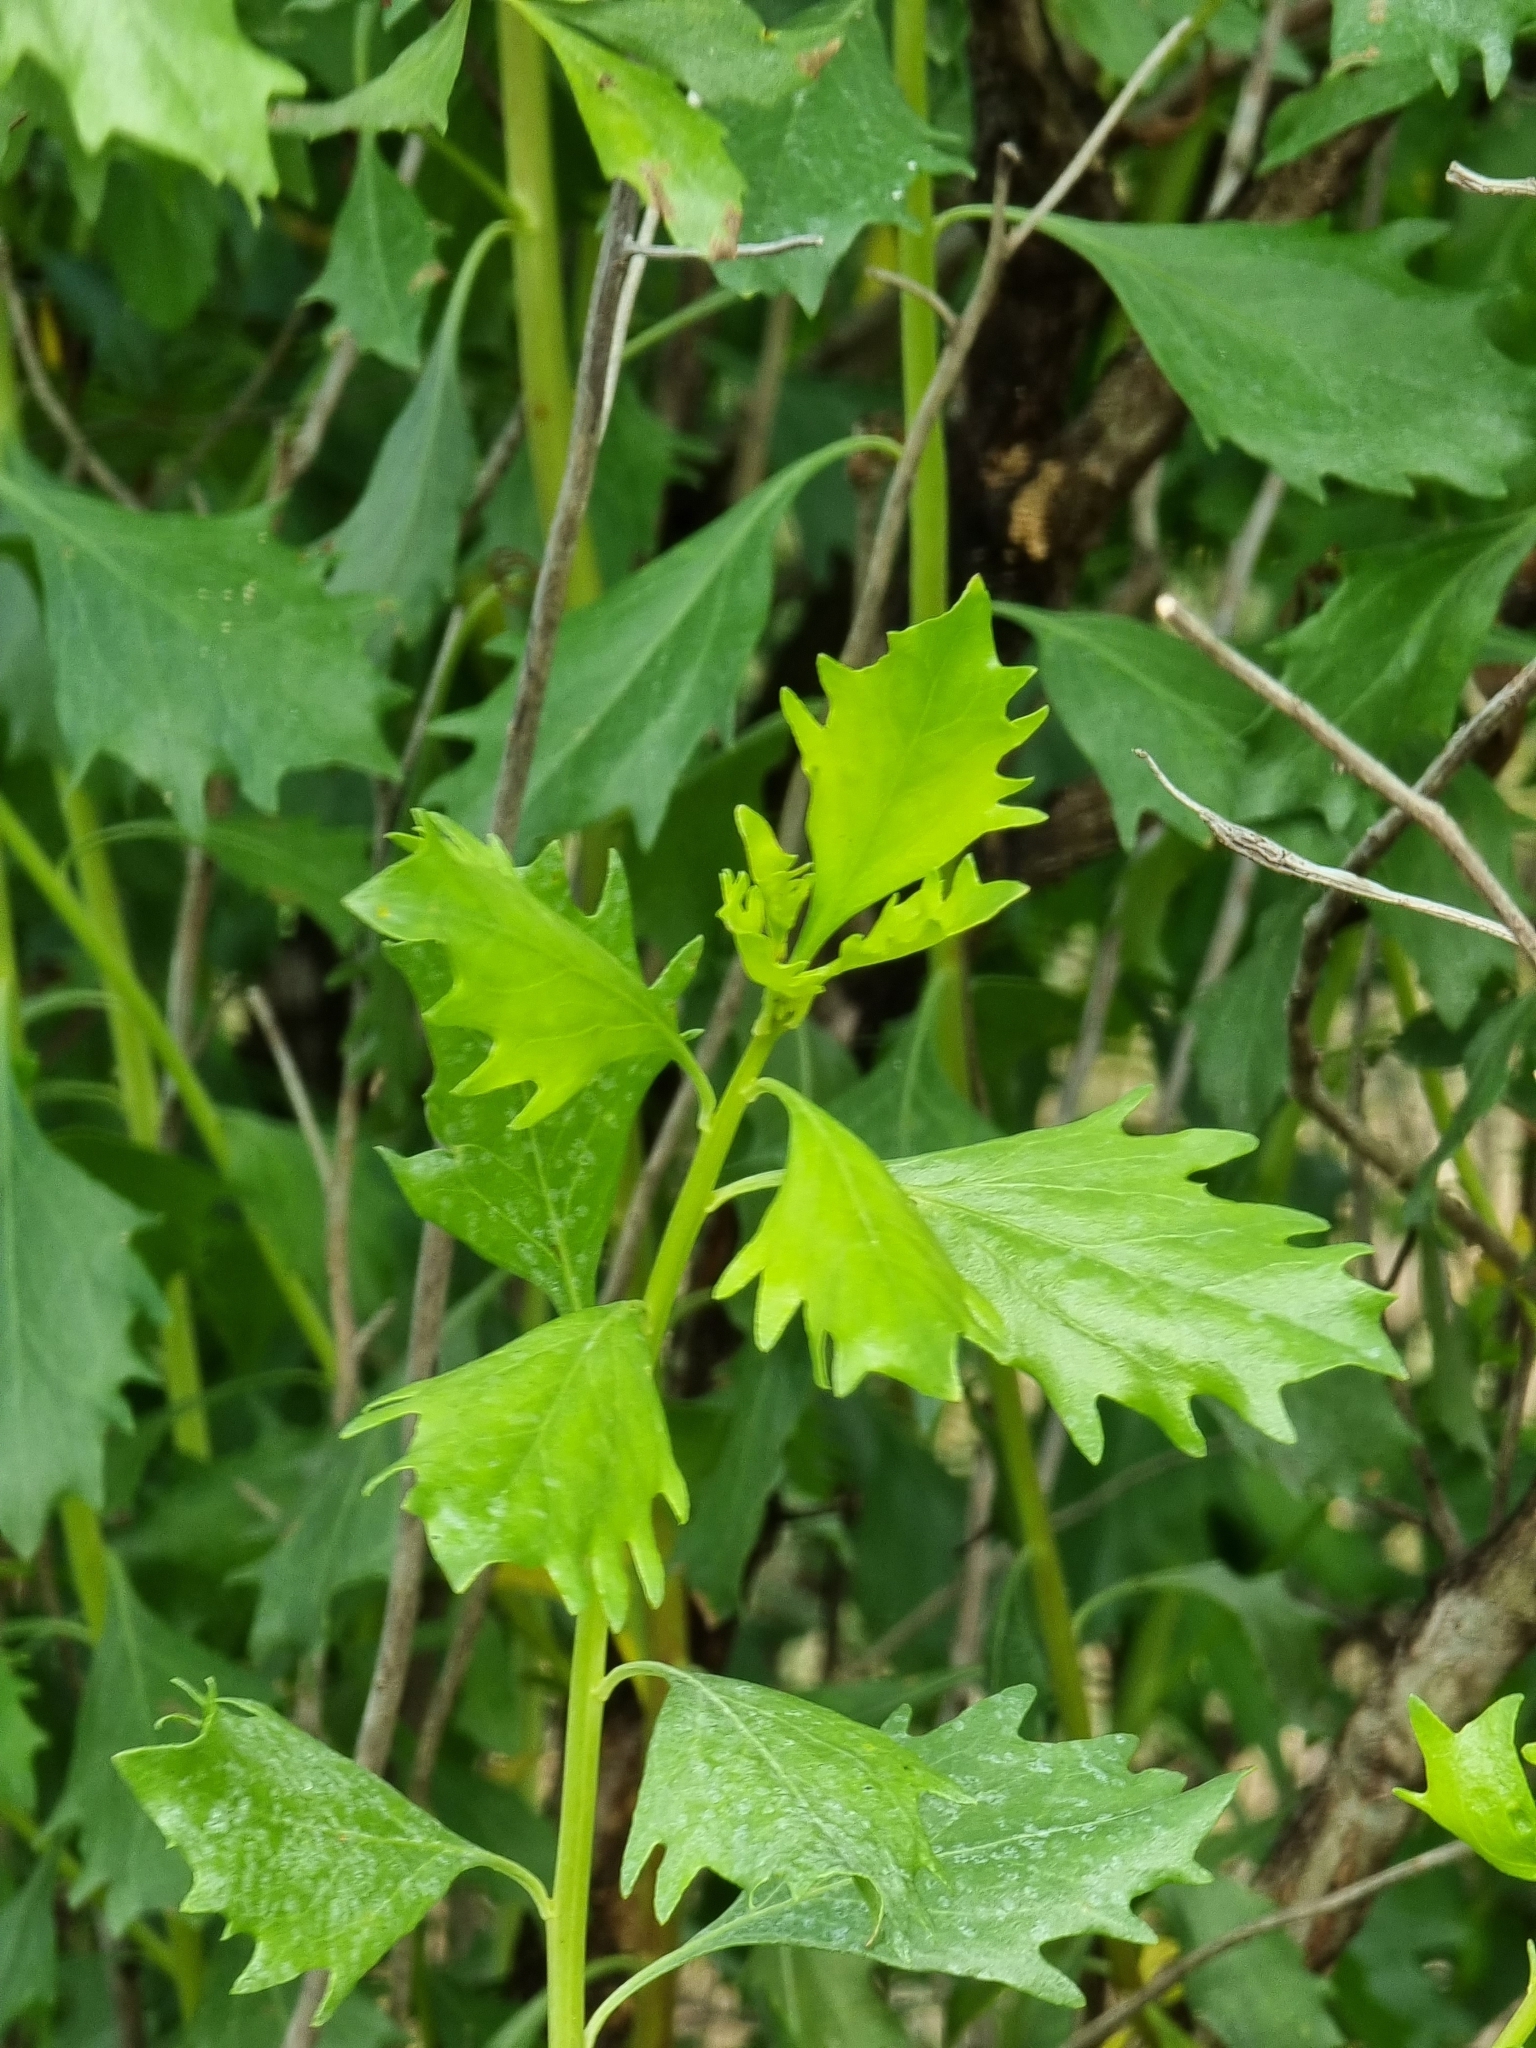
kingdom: Plantae
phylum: Tracheophyta
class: Magnoliopsida
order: Asterales
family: Asteraceae
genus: Baccharis
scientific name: Baccharis halimifolia
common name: Eastern baccharis
